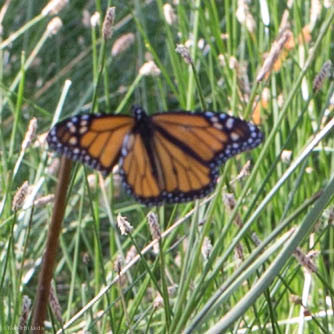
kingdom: Animalia
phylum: Arthropoda
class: Insecta
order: Lepidoptera
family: Nymphalidae
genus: Danaus
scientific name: Danaus plexippus
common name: Monarch
